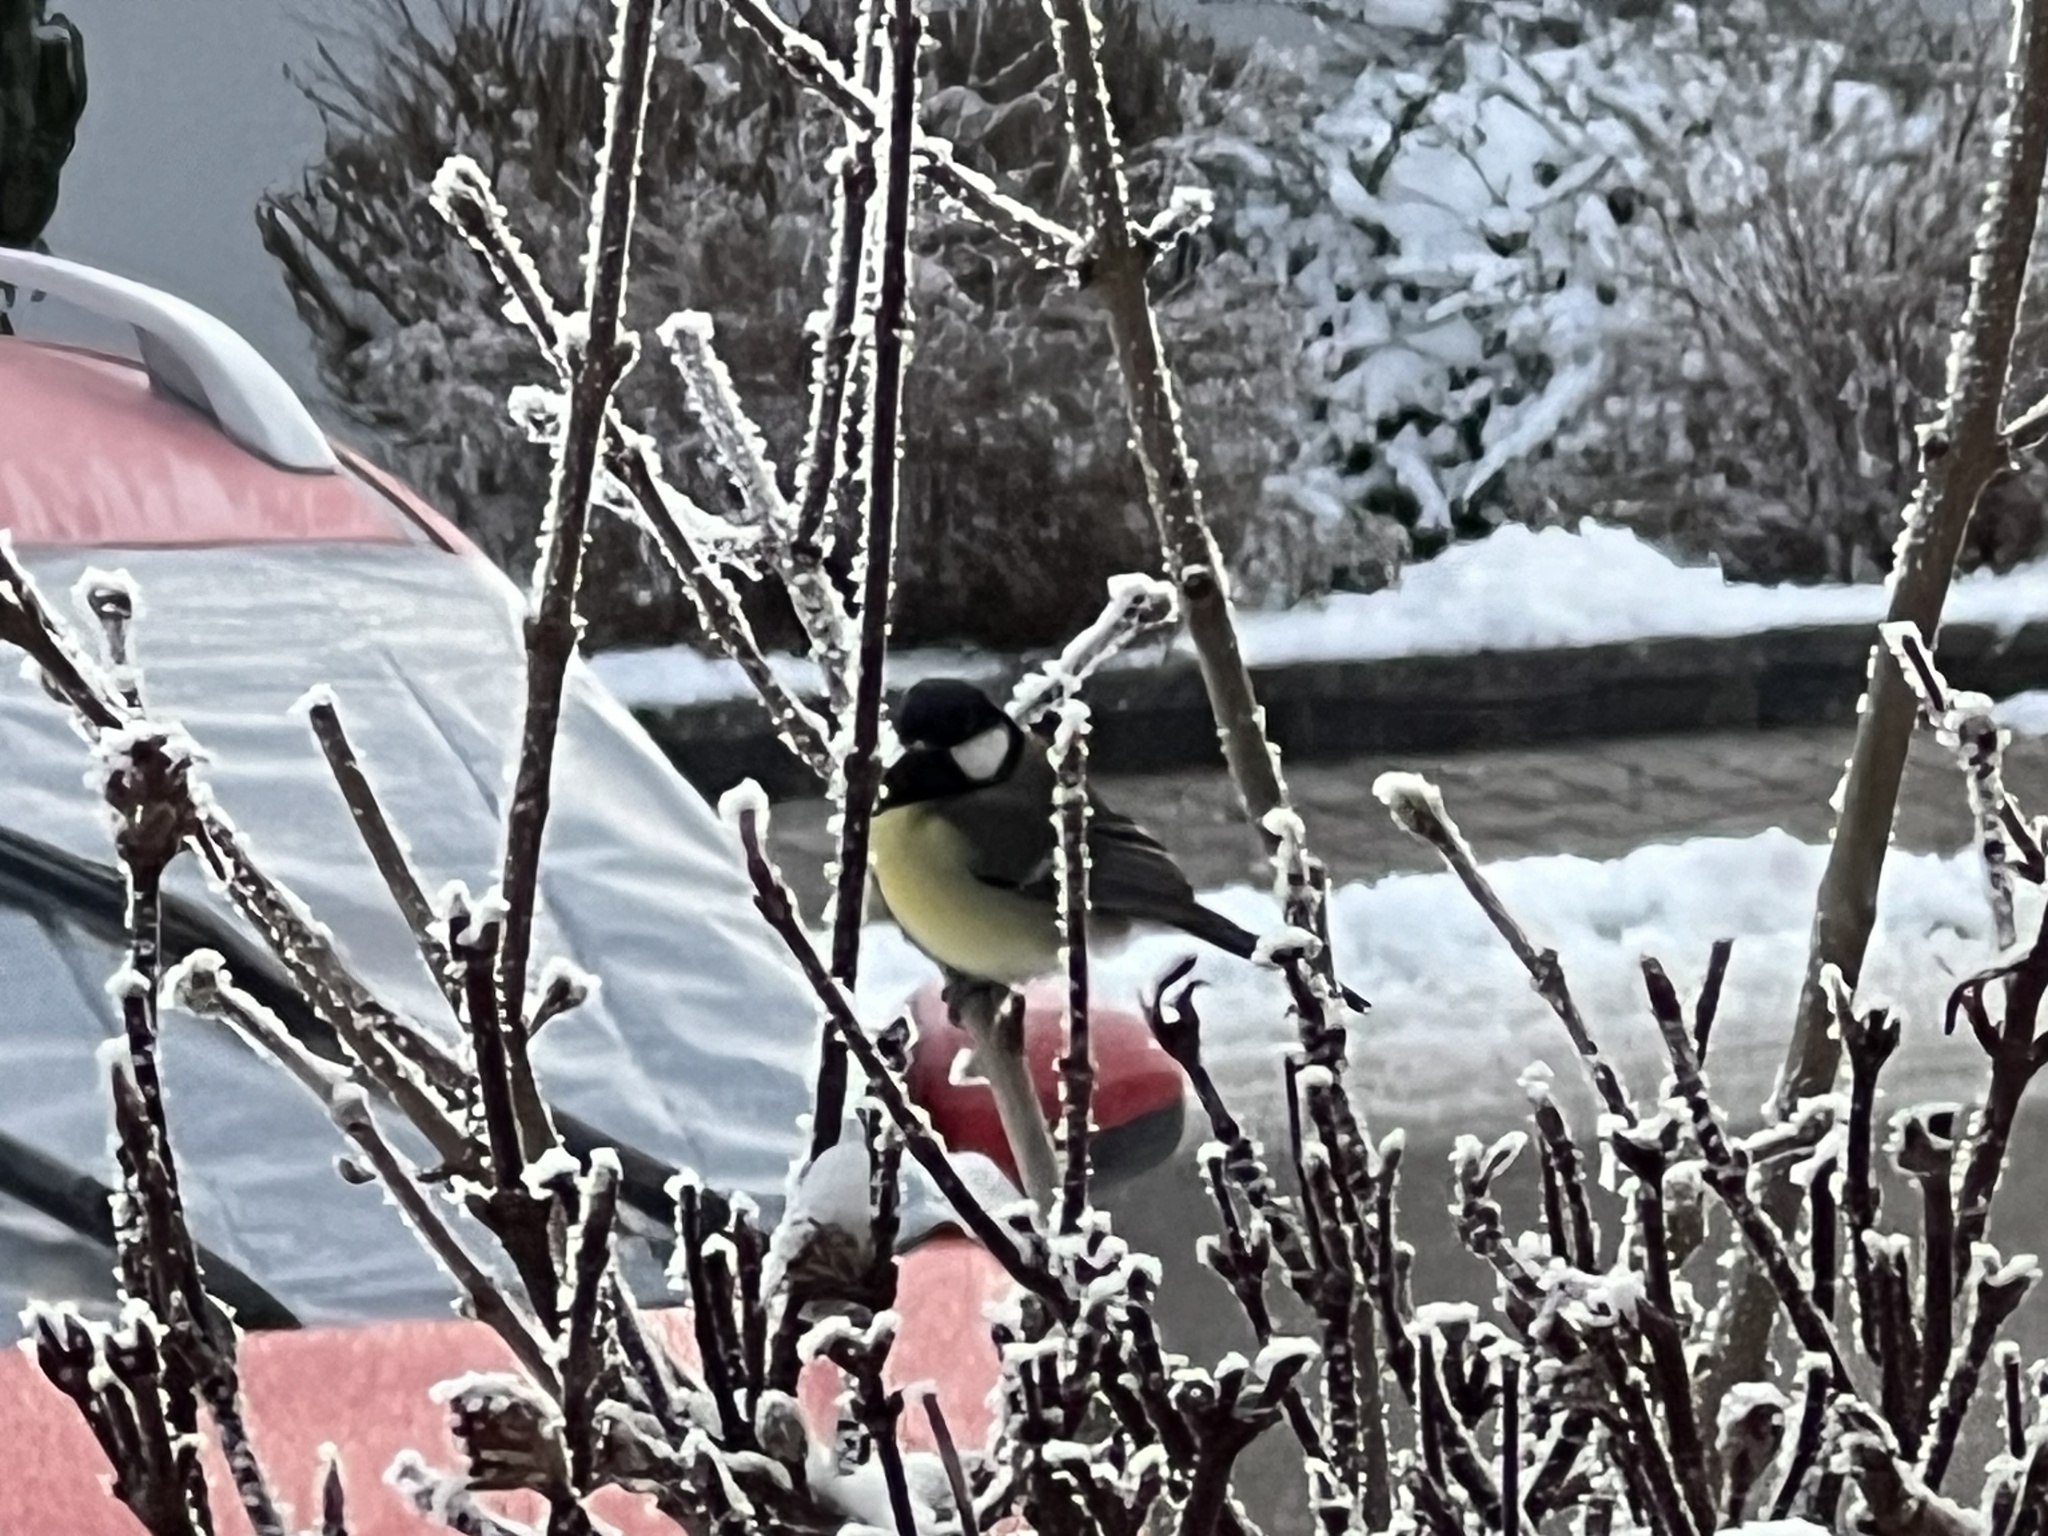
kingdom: Animalia
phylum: Chordata
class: Aves
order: Passeriformes
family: Paridae
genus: Parus
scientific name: Parus major
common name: Great tit
